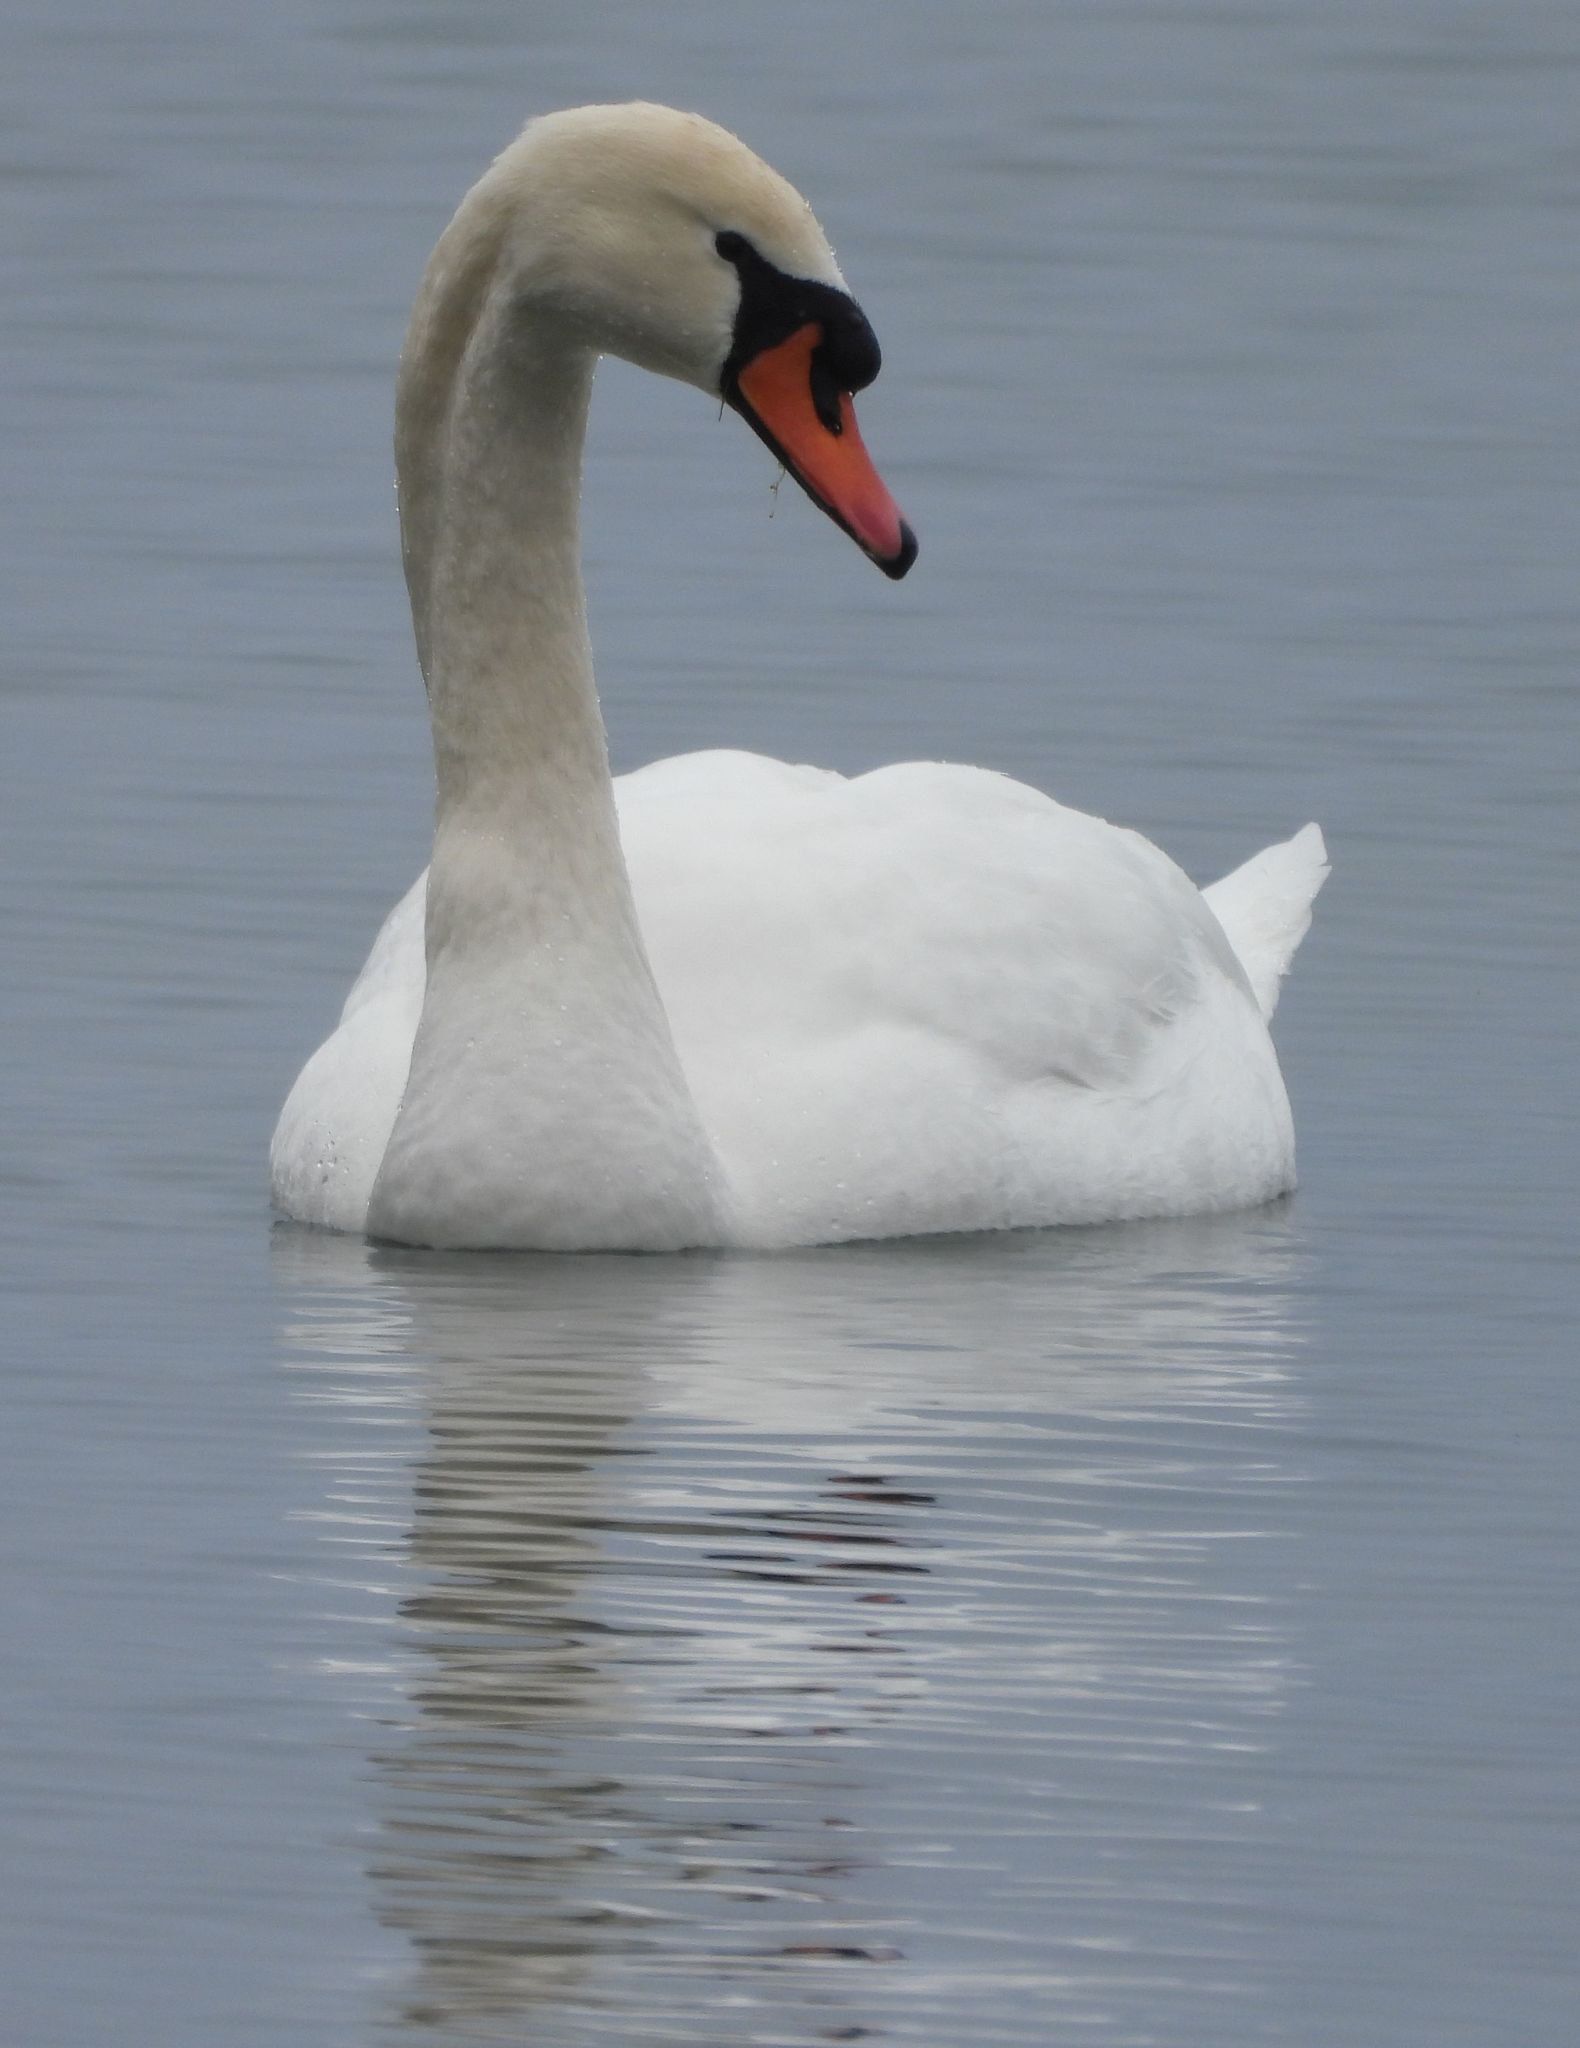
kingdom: Animalia
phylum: Chordata
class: Aves
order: Anseriformes
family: Anatidae
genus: Cygnus
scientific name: Cygnus olor
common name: Mute swan
